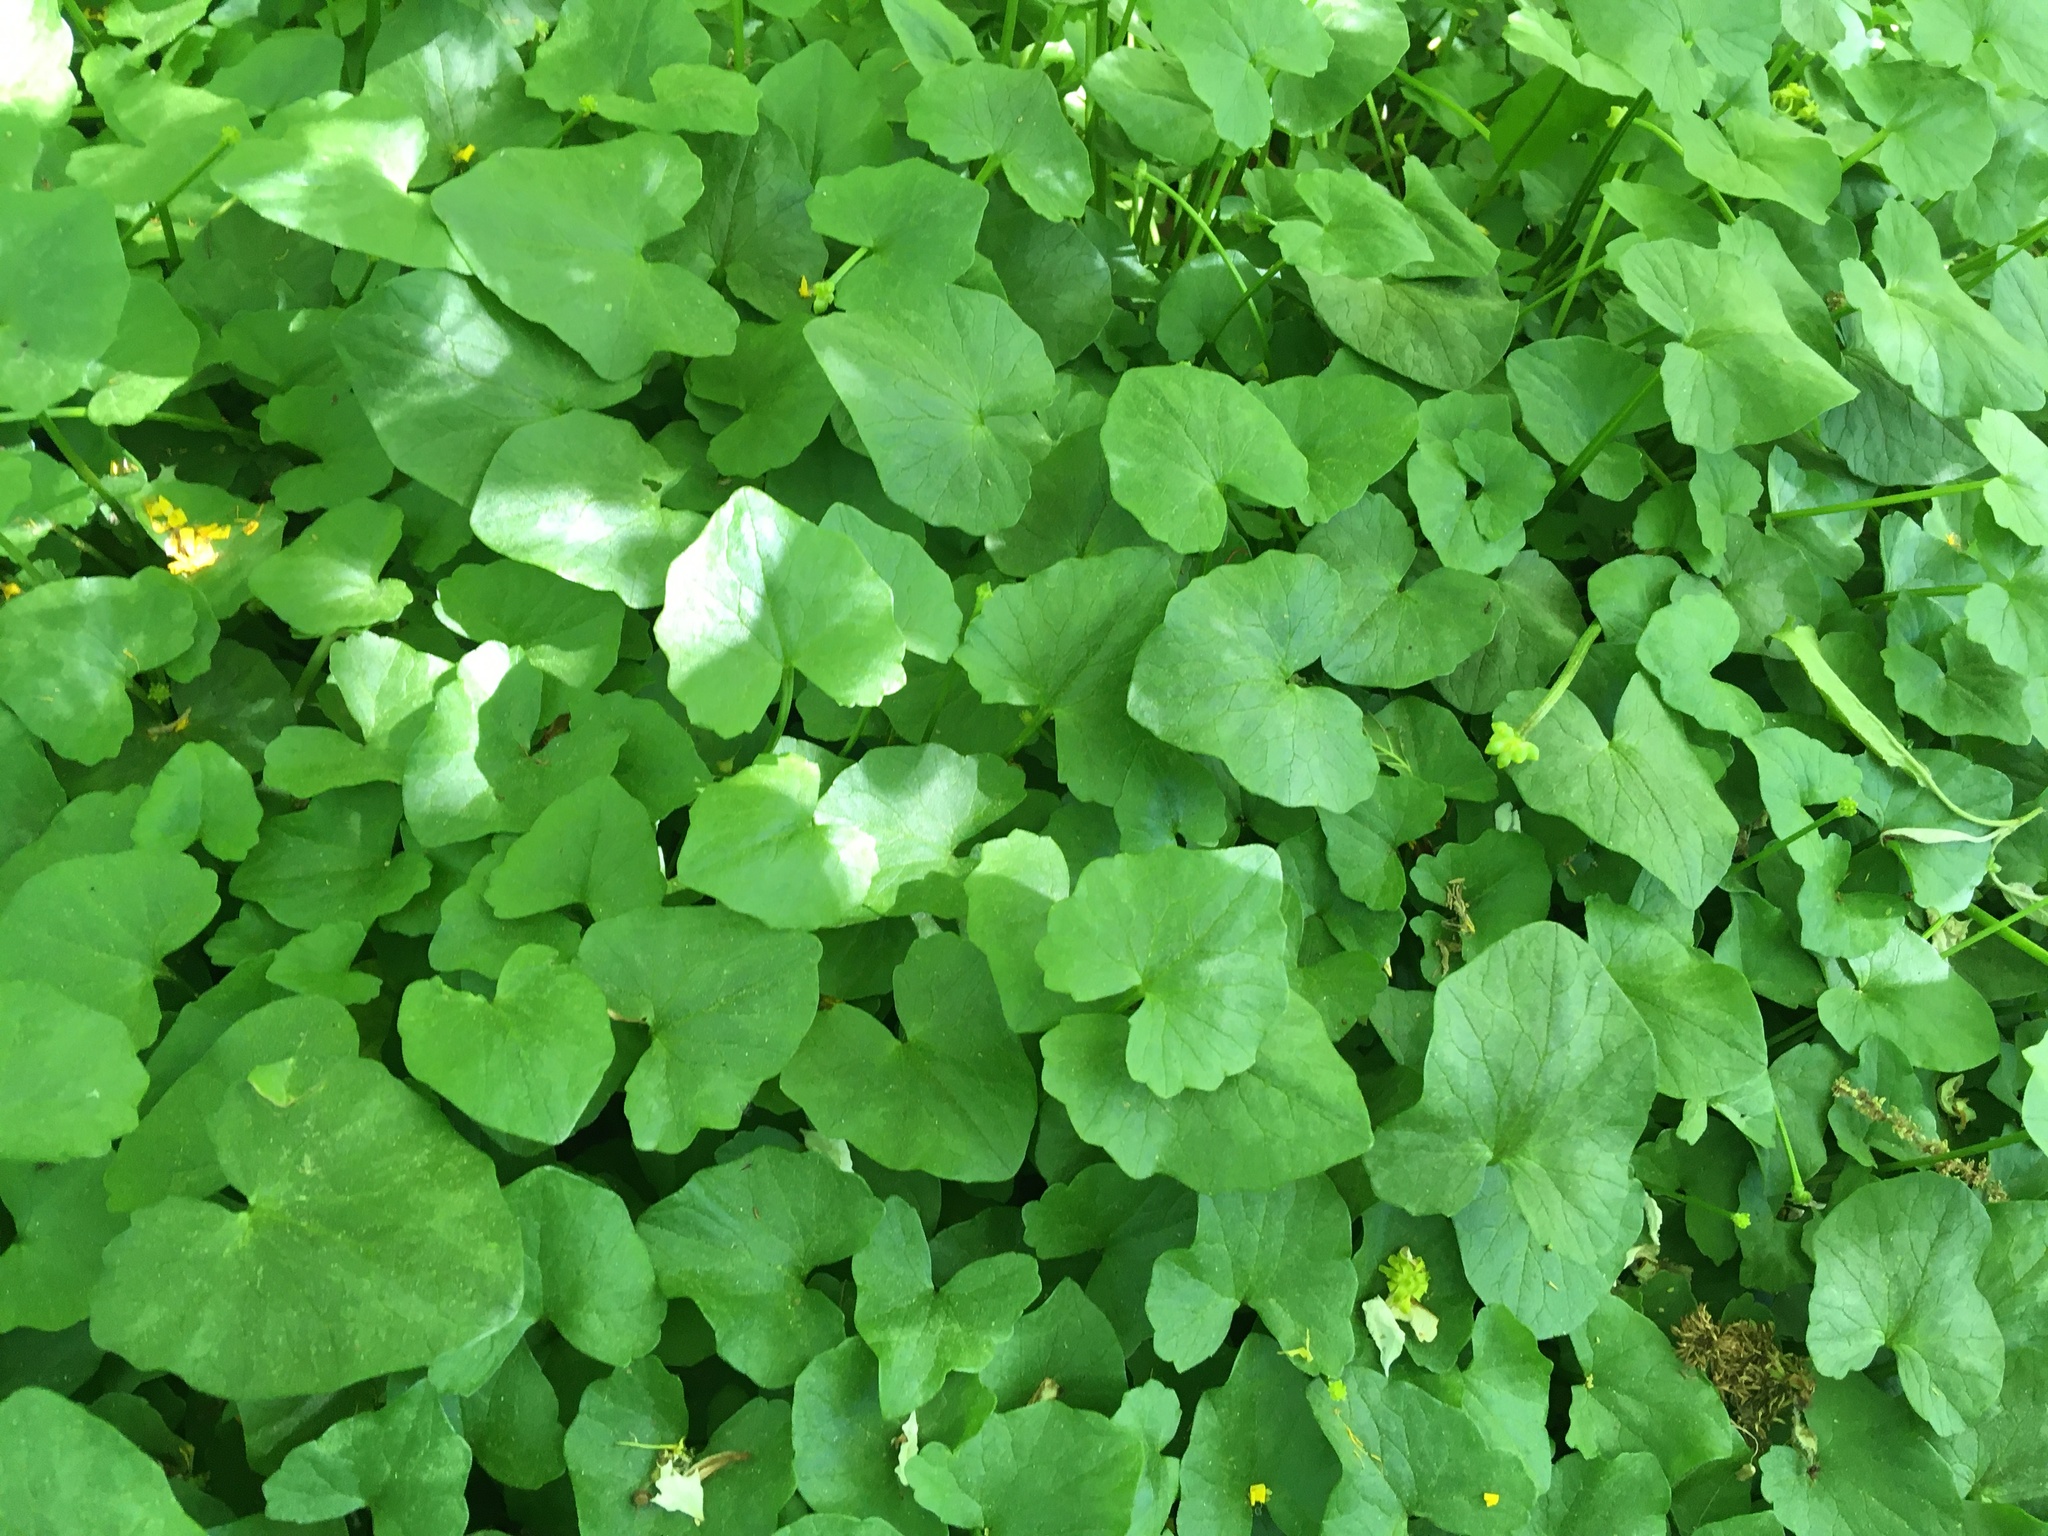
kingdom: Plantae
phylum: Tracheophyta
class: Magnoliopsida
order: Ranunculales
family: Ranunculaceae
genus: Ficaria
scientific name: Ficaria verna
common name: Lesser celandine
